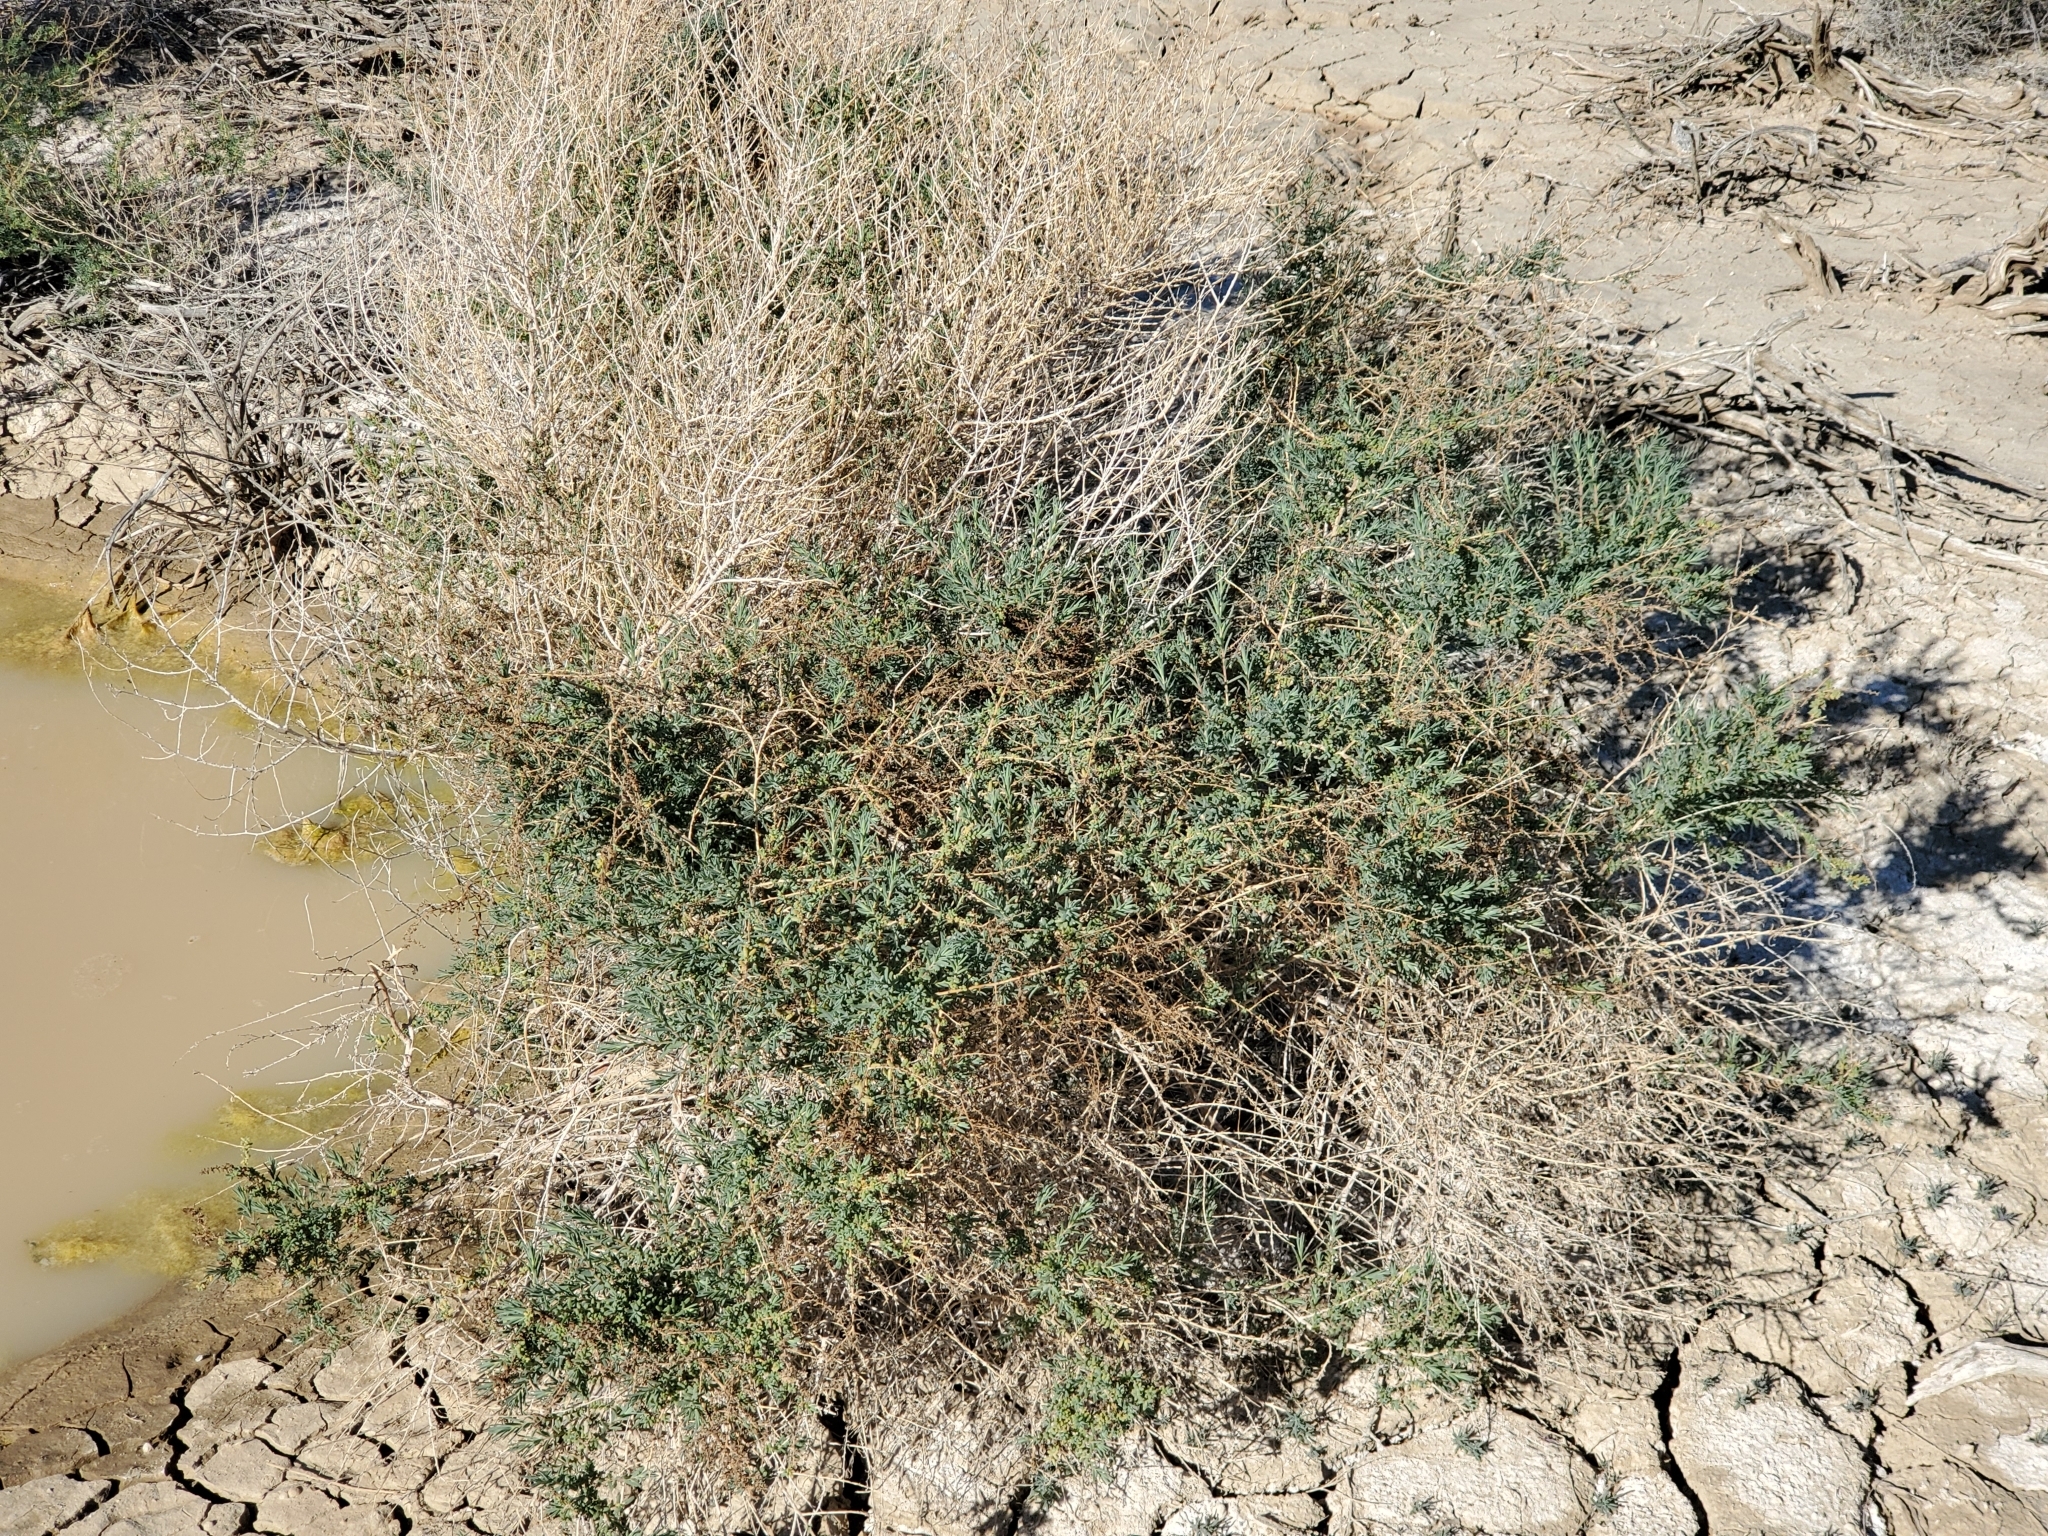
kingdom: Plantae
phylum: Tracheophyta
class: Magnoliopsida
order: Caryophyllales
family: Amaranthaceae
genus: Suaeda
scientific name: Suaeda nigra
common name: Bush seepweed
